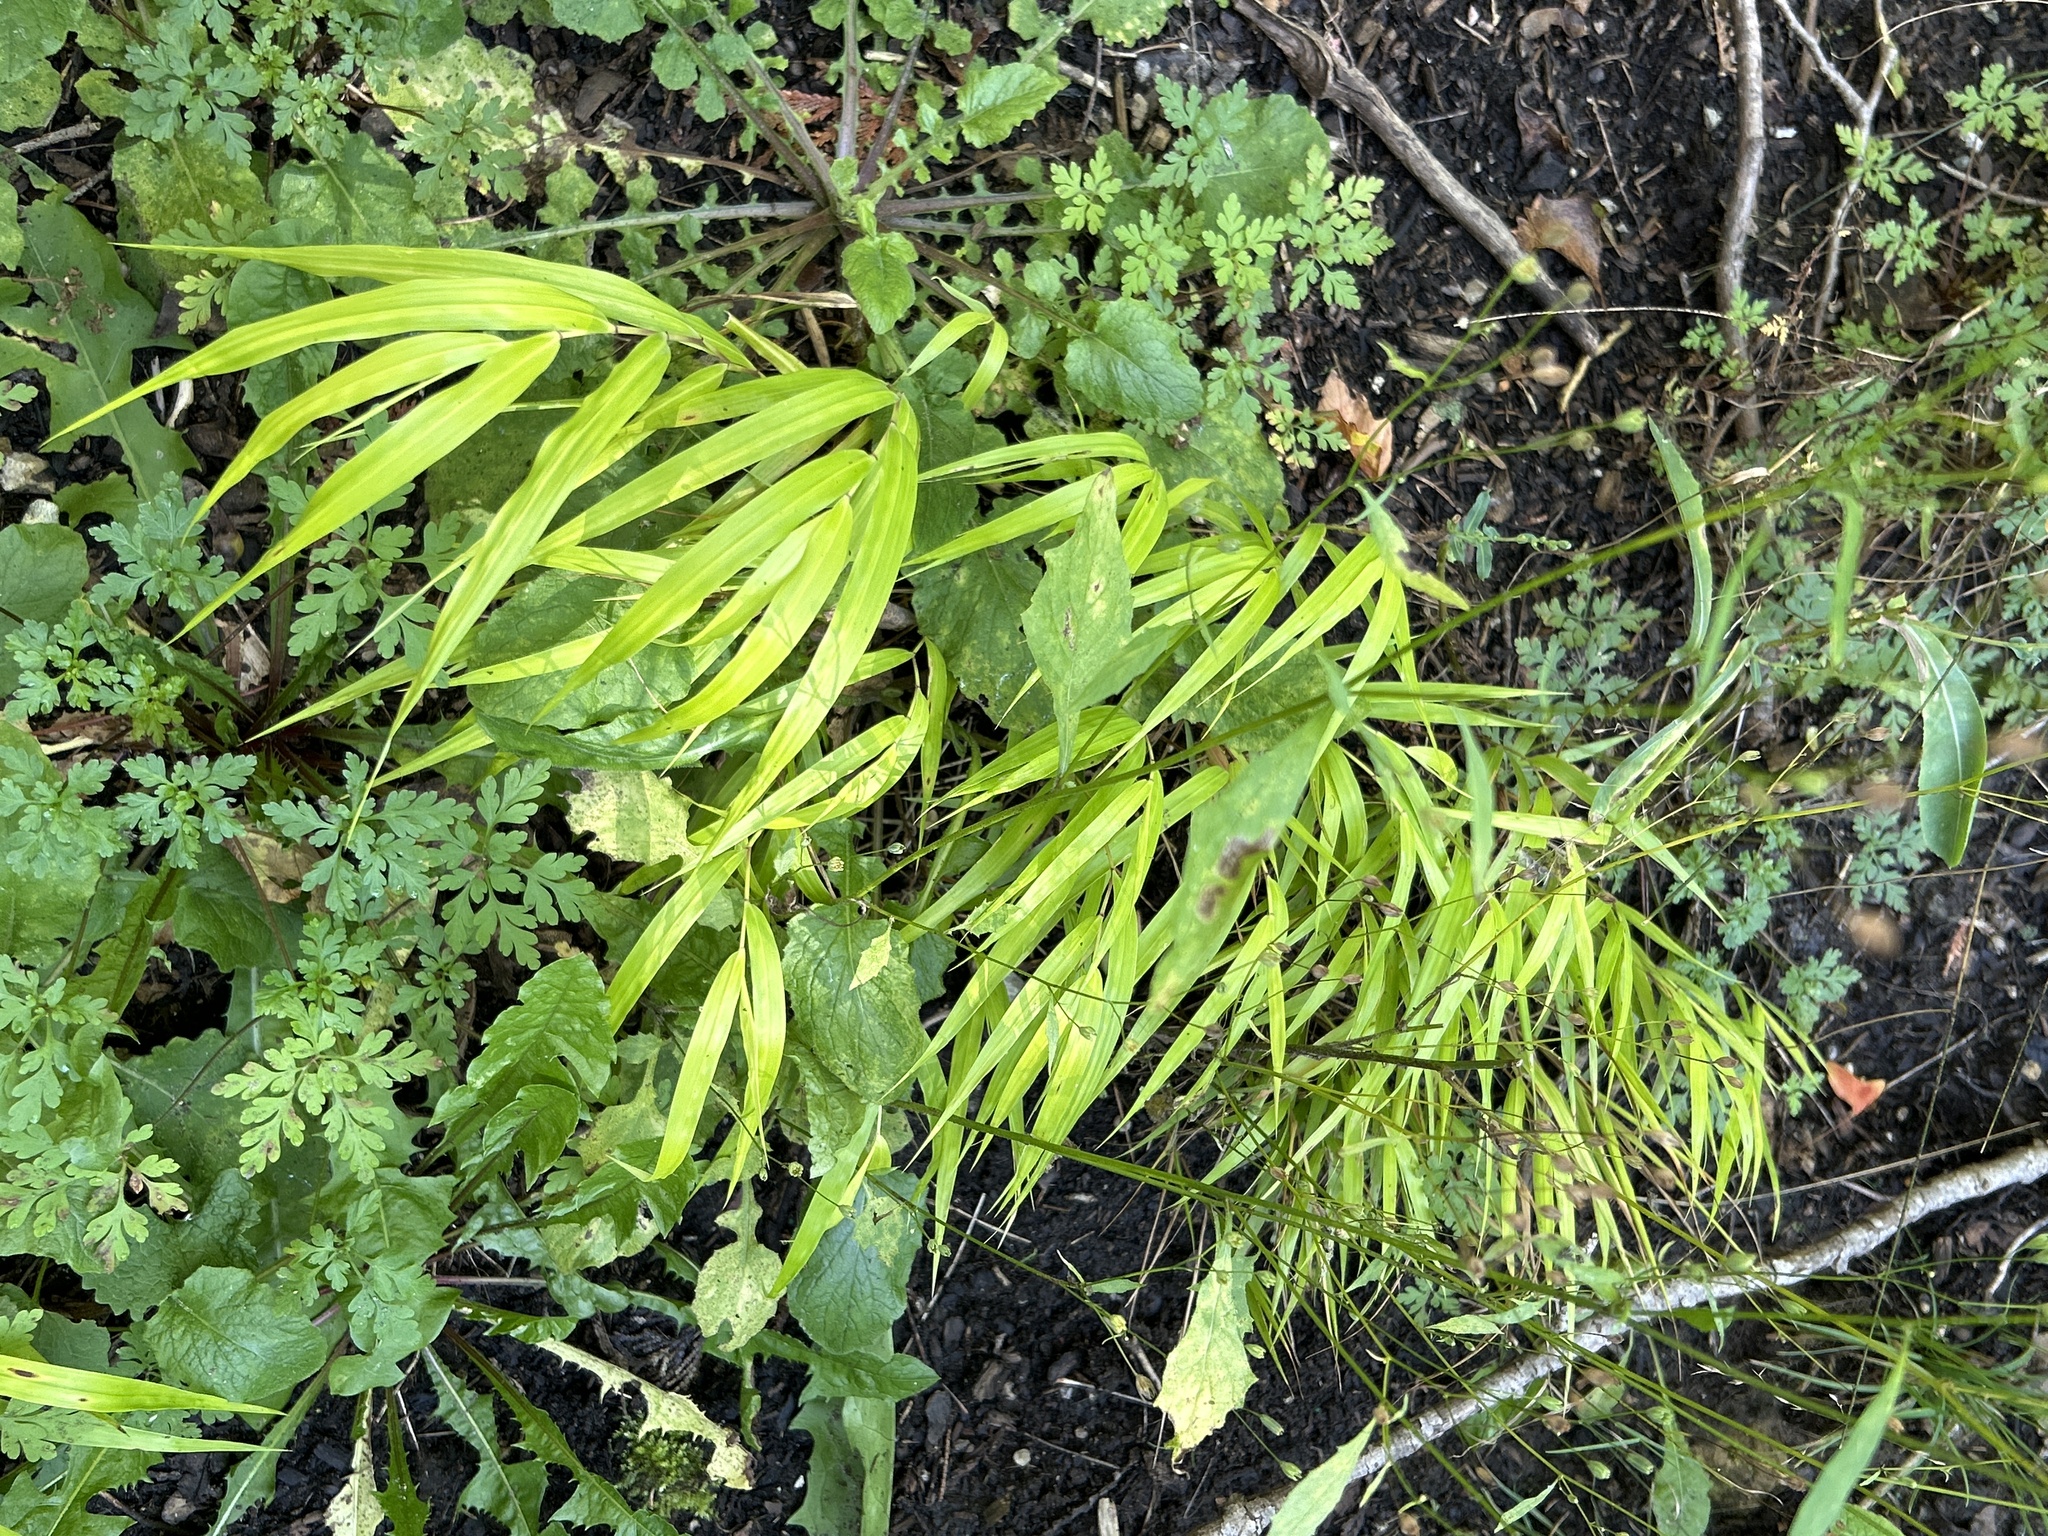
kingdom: Plantae
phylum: Tracheophyta
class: Liliopsida
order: Poales
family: Poaceae
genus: Patis
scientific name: Patis racemosa
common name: Black-fruited mountain rice
